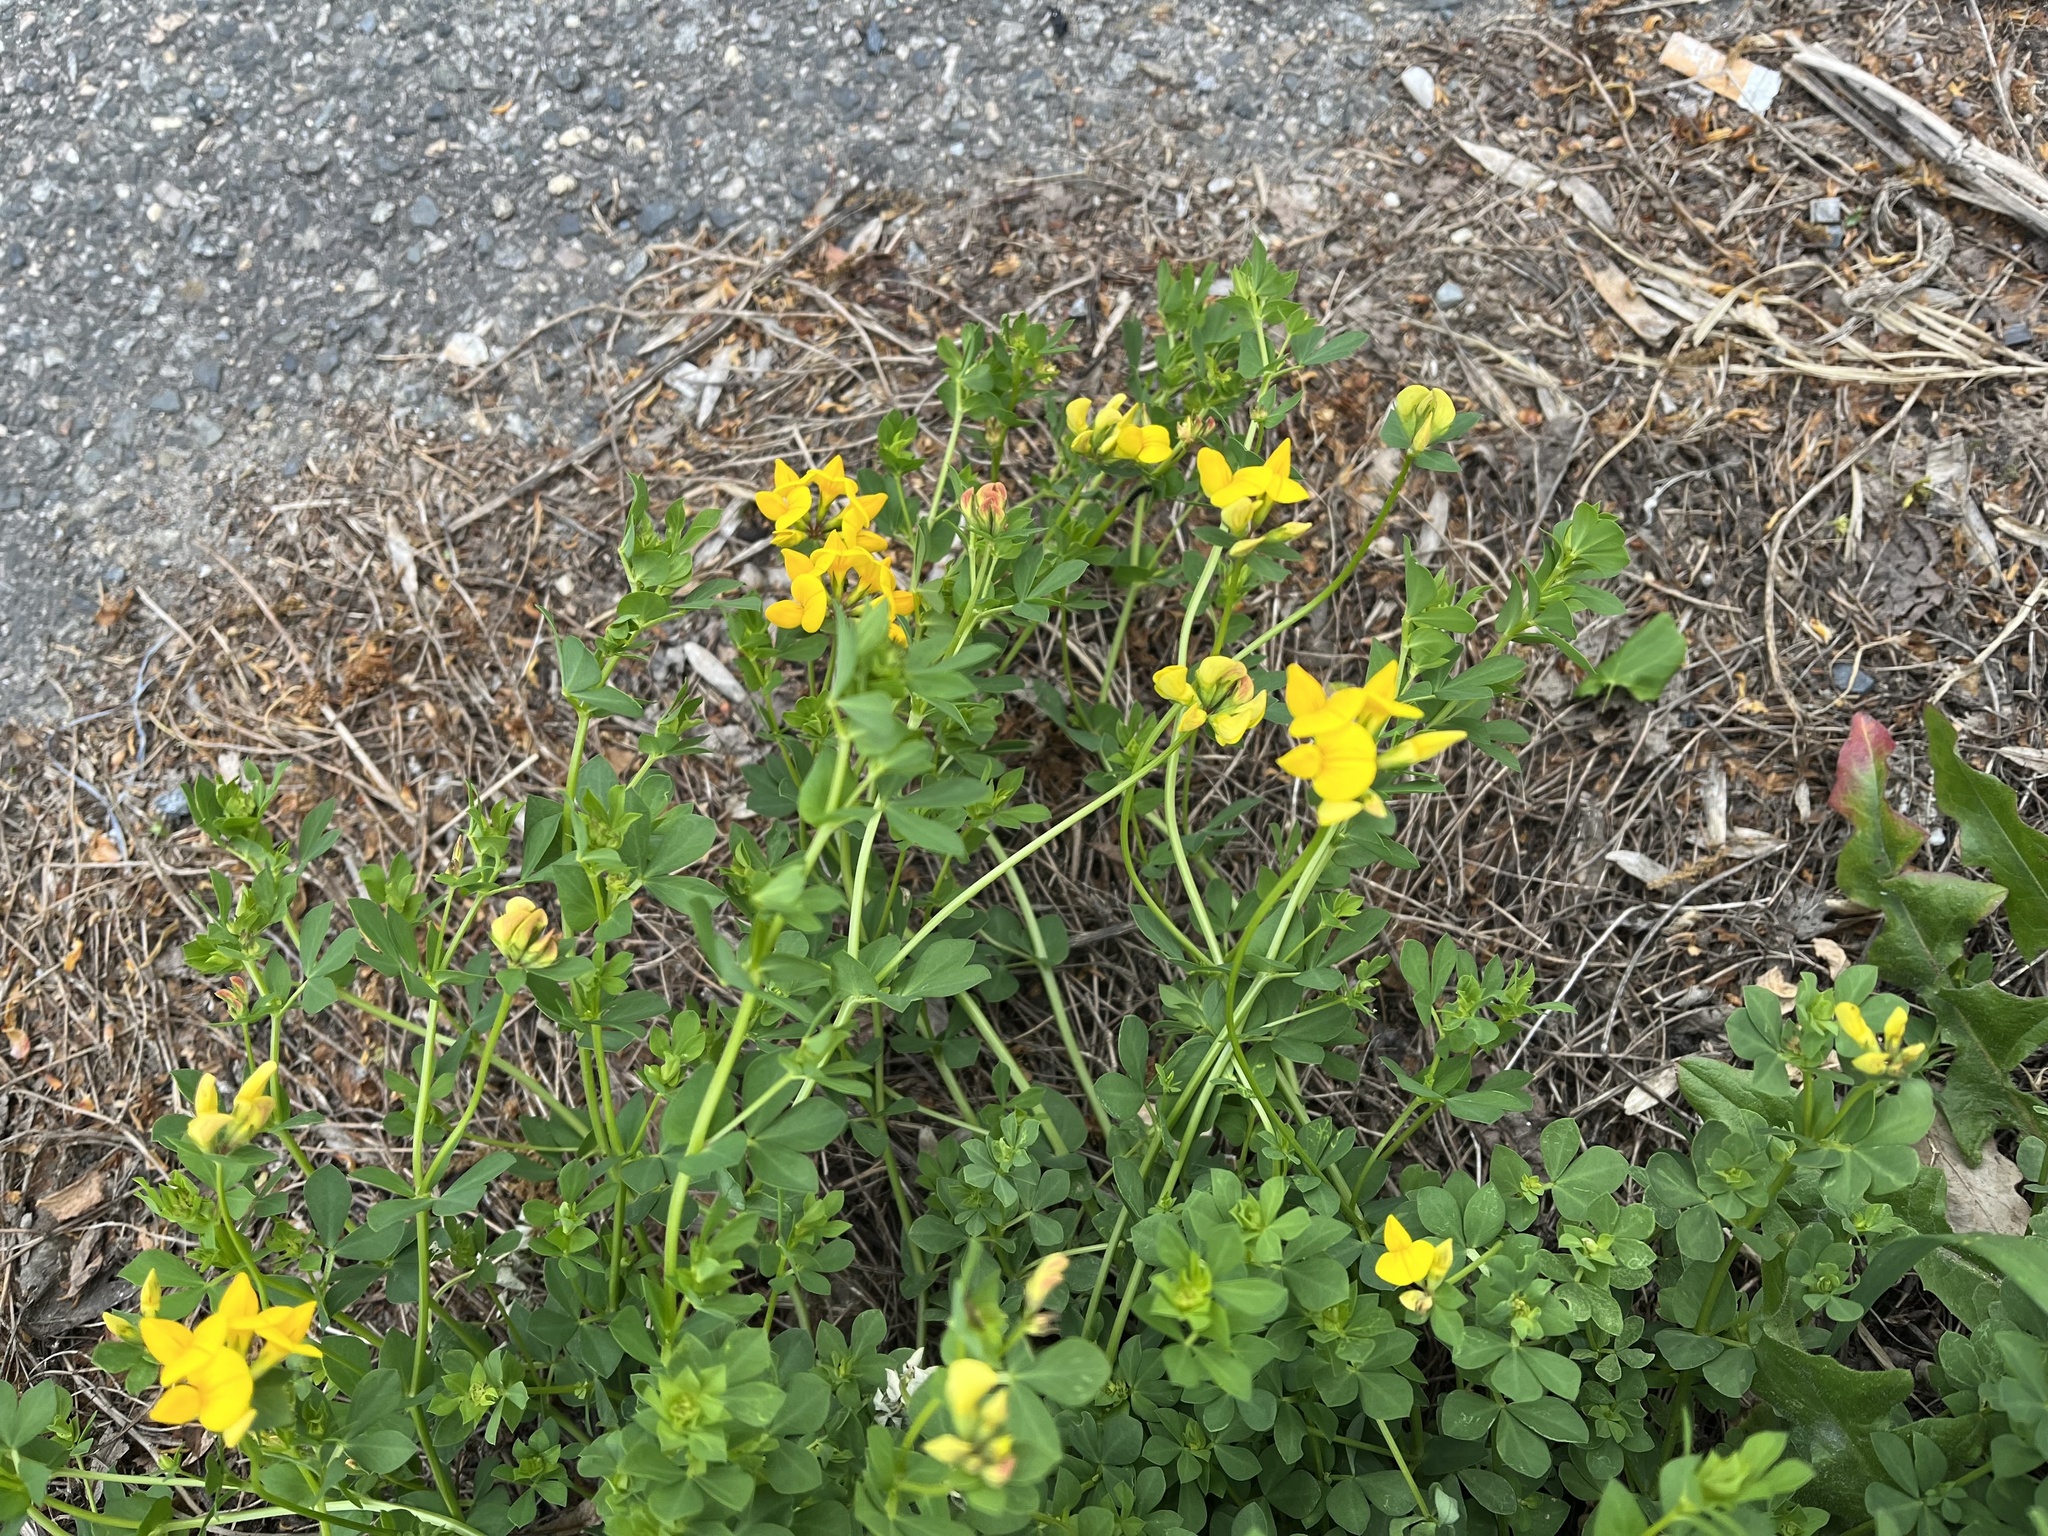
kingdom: Plantae
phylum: Tracheophyta
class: Magnoliopsida
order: Fabales
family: Fabaceae
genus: Lotus
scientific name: Lotus corniculatus
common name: Common bird's-foot-trefoil
